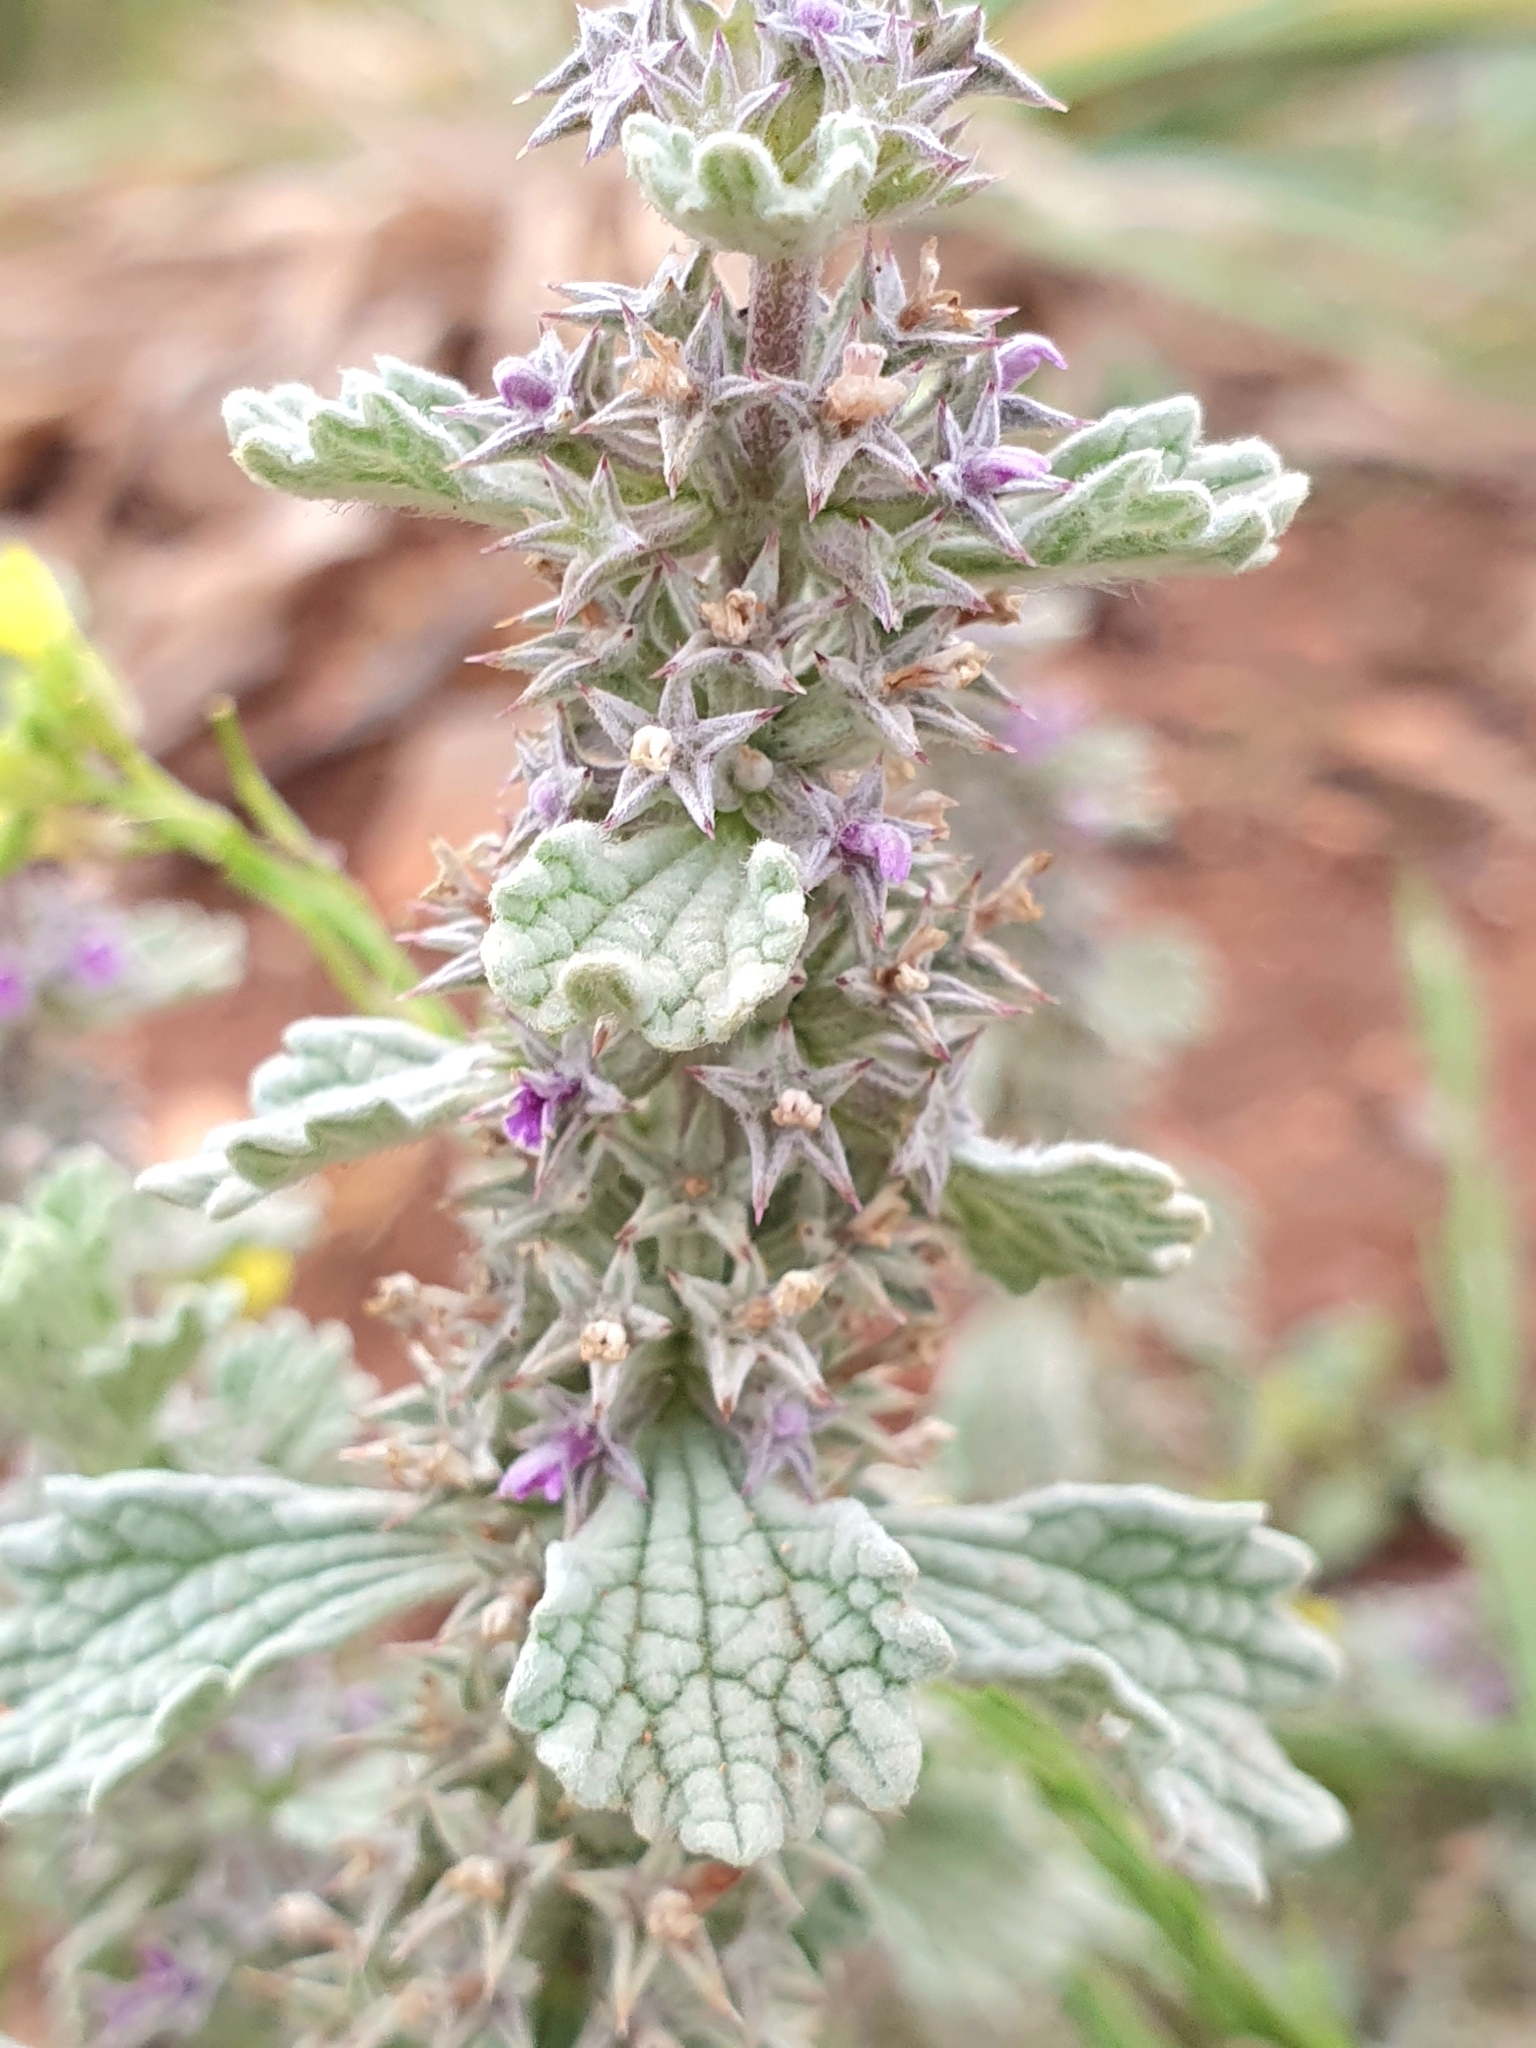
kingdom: Plantae
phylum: Tracheophyta
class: Magnoliopsida
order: Lamiales
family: Lamiaceae
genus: Marrubium
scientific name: Marrubium alysson
